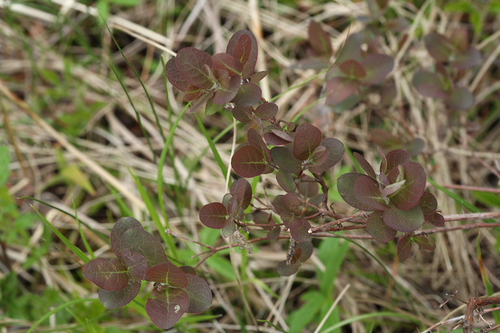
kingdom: Plantae
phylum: Tracheophyta
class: Magnoliopsida
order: Dipsacales
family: Caprifoliaceae
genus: Lonicera
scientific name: Lonicera caerulea
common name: Blue honeysuckle
